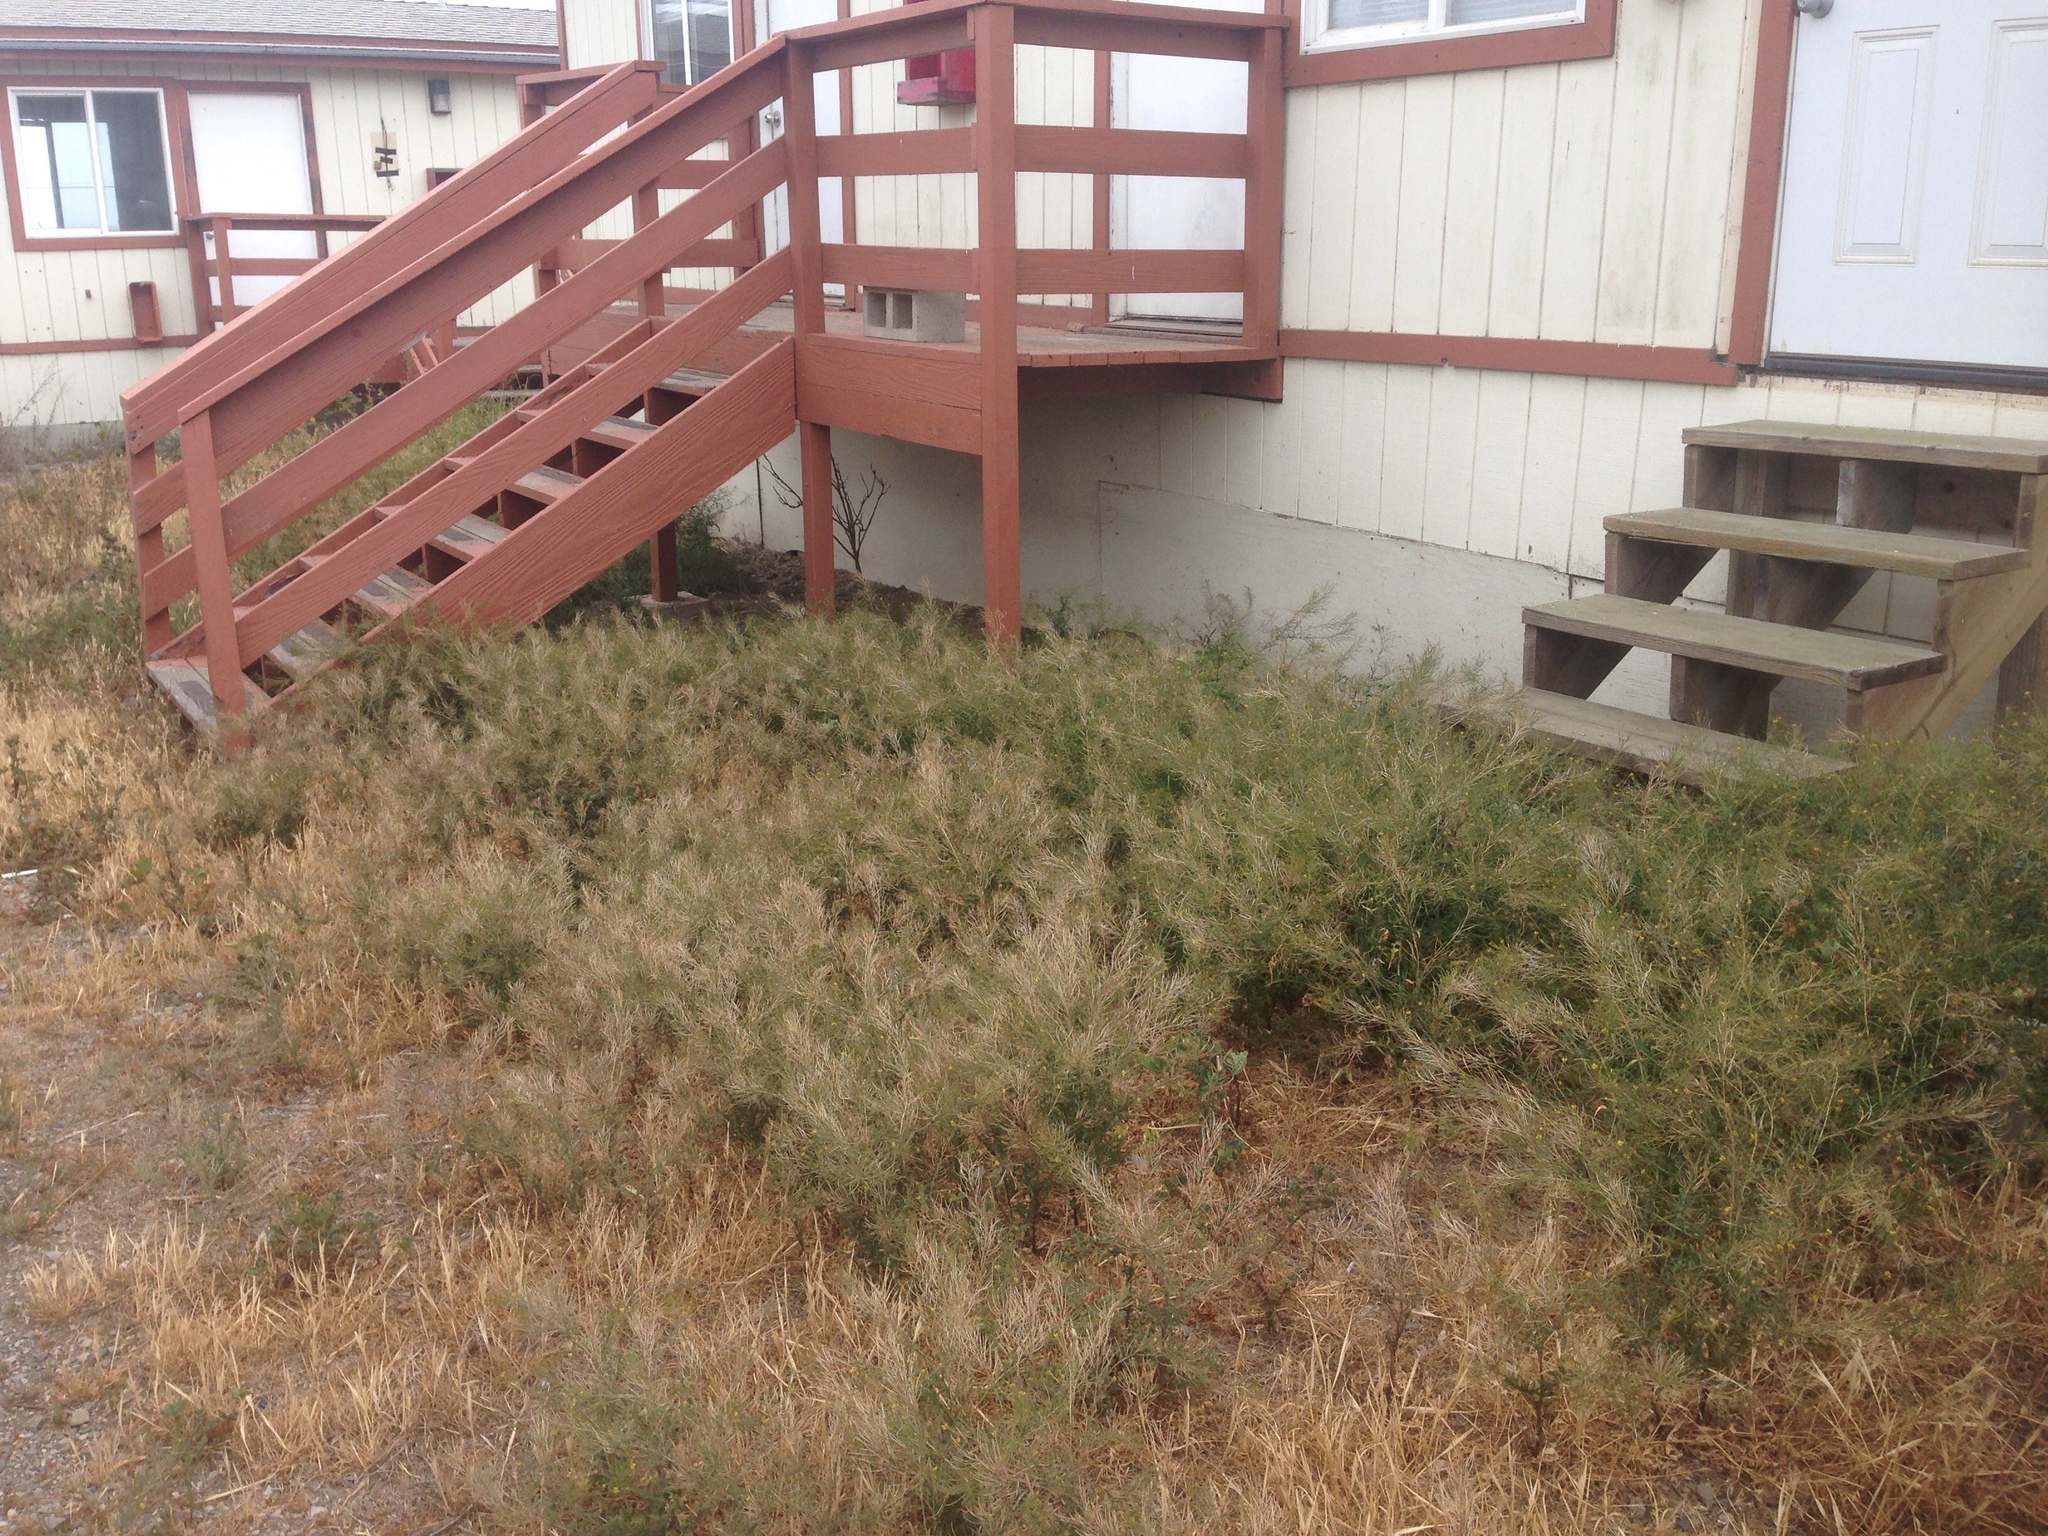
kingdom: Plantae
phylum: Tracheophyta
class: Magnoliopsida
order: Brassicales
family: Brassicaceae
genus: Sisymbrium
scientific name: Sisymbrium irio
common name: London rocket
